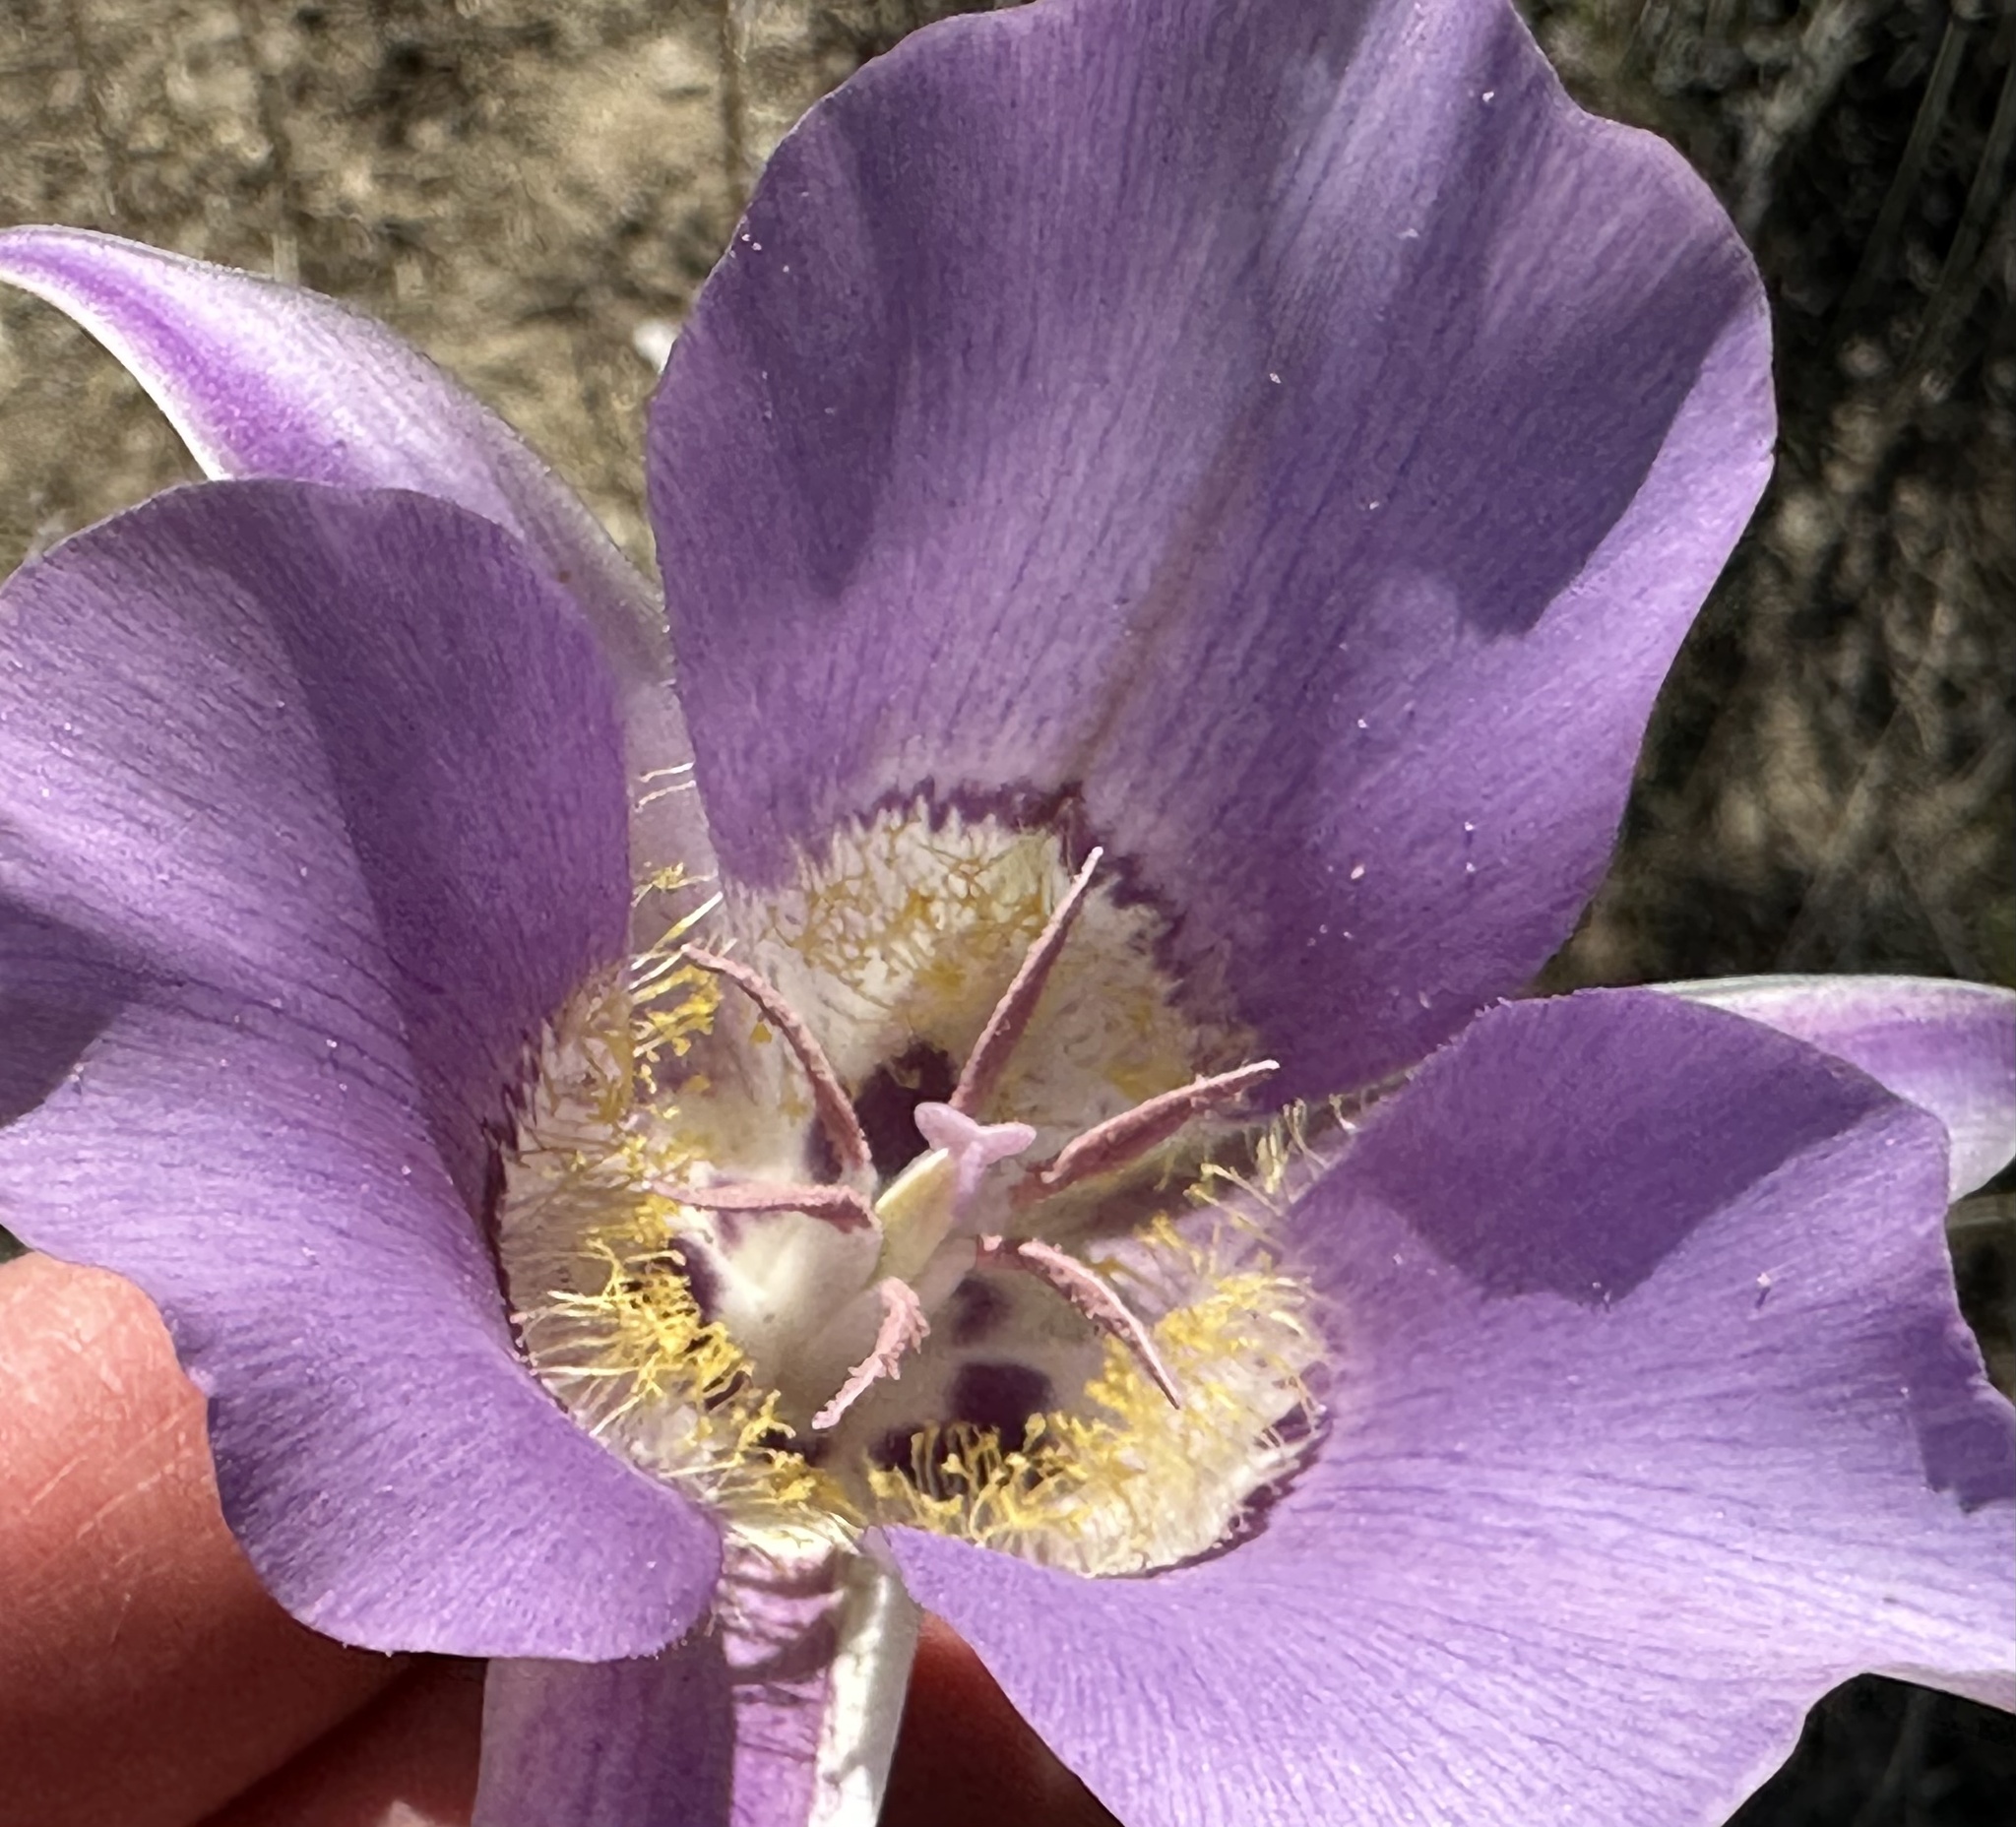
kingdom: Plantae
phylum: Tracheophyta
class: Liliopsida
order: Liliales
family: Liliaceae
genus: Calochortus
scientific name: Calochortus macrocarpus
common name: Green-band mariposa lily
